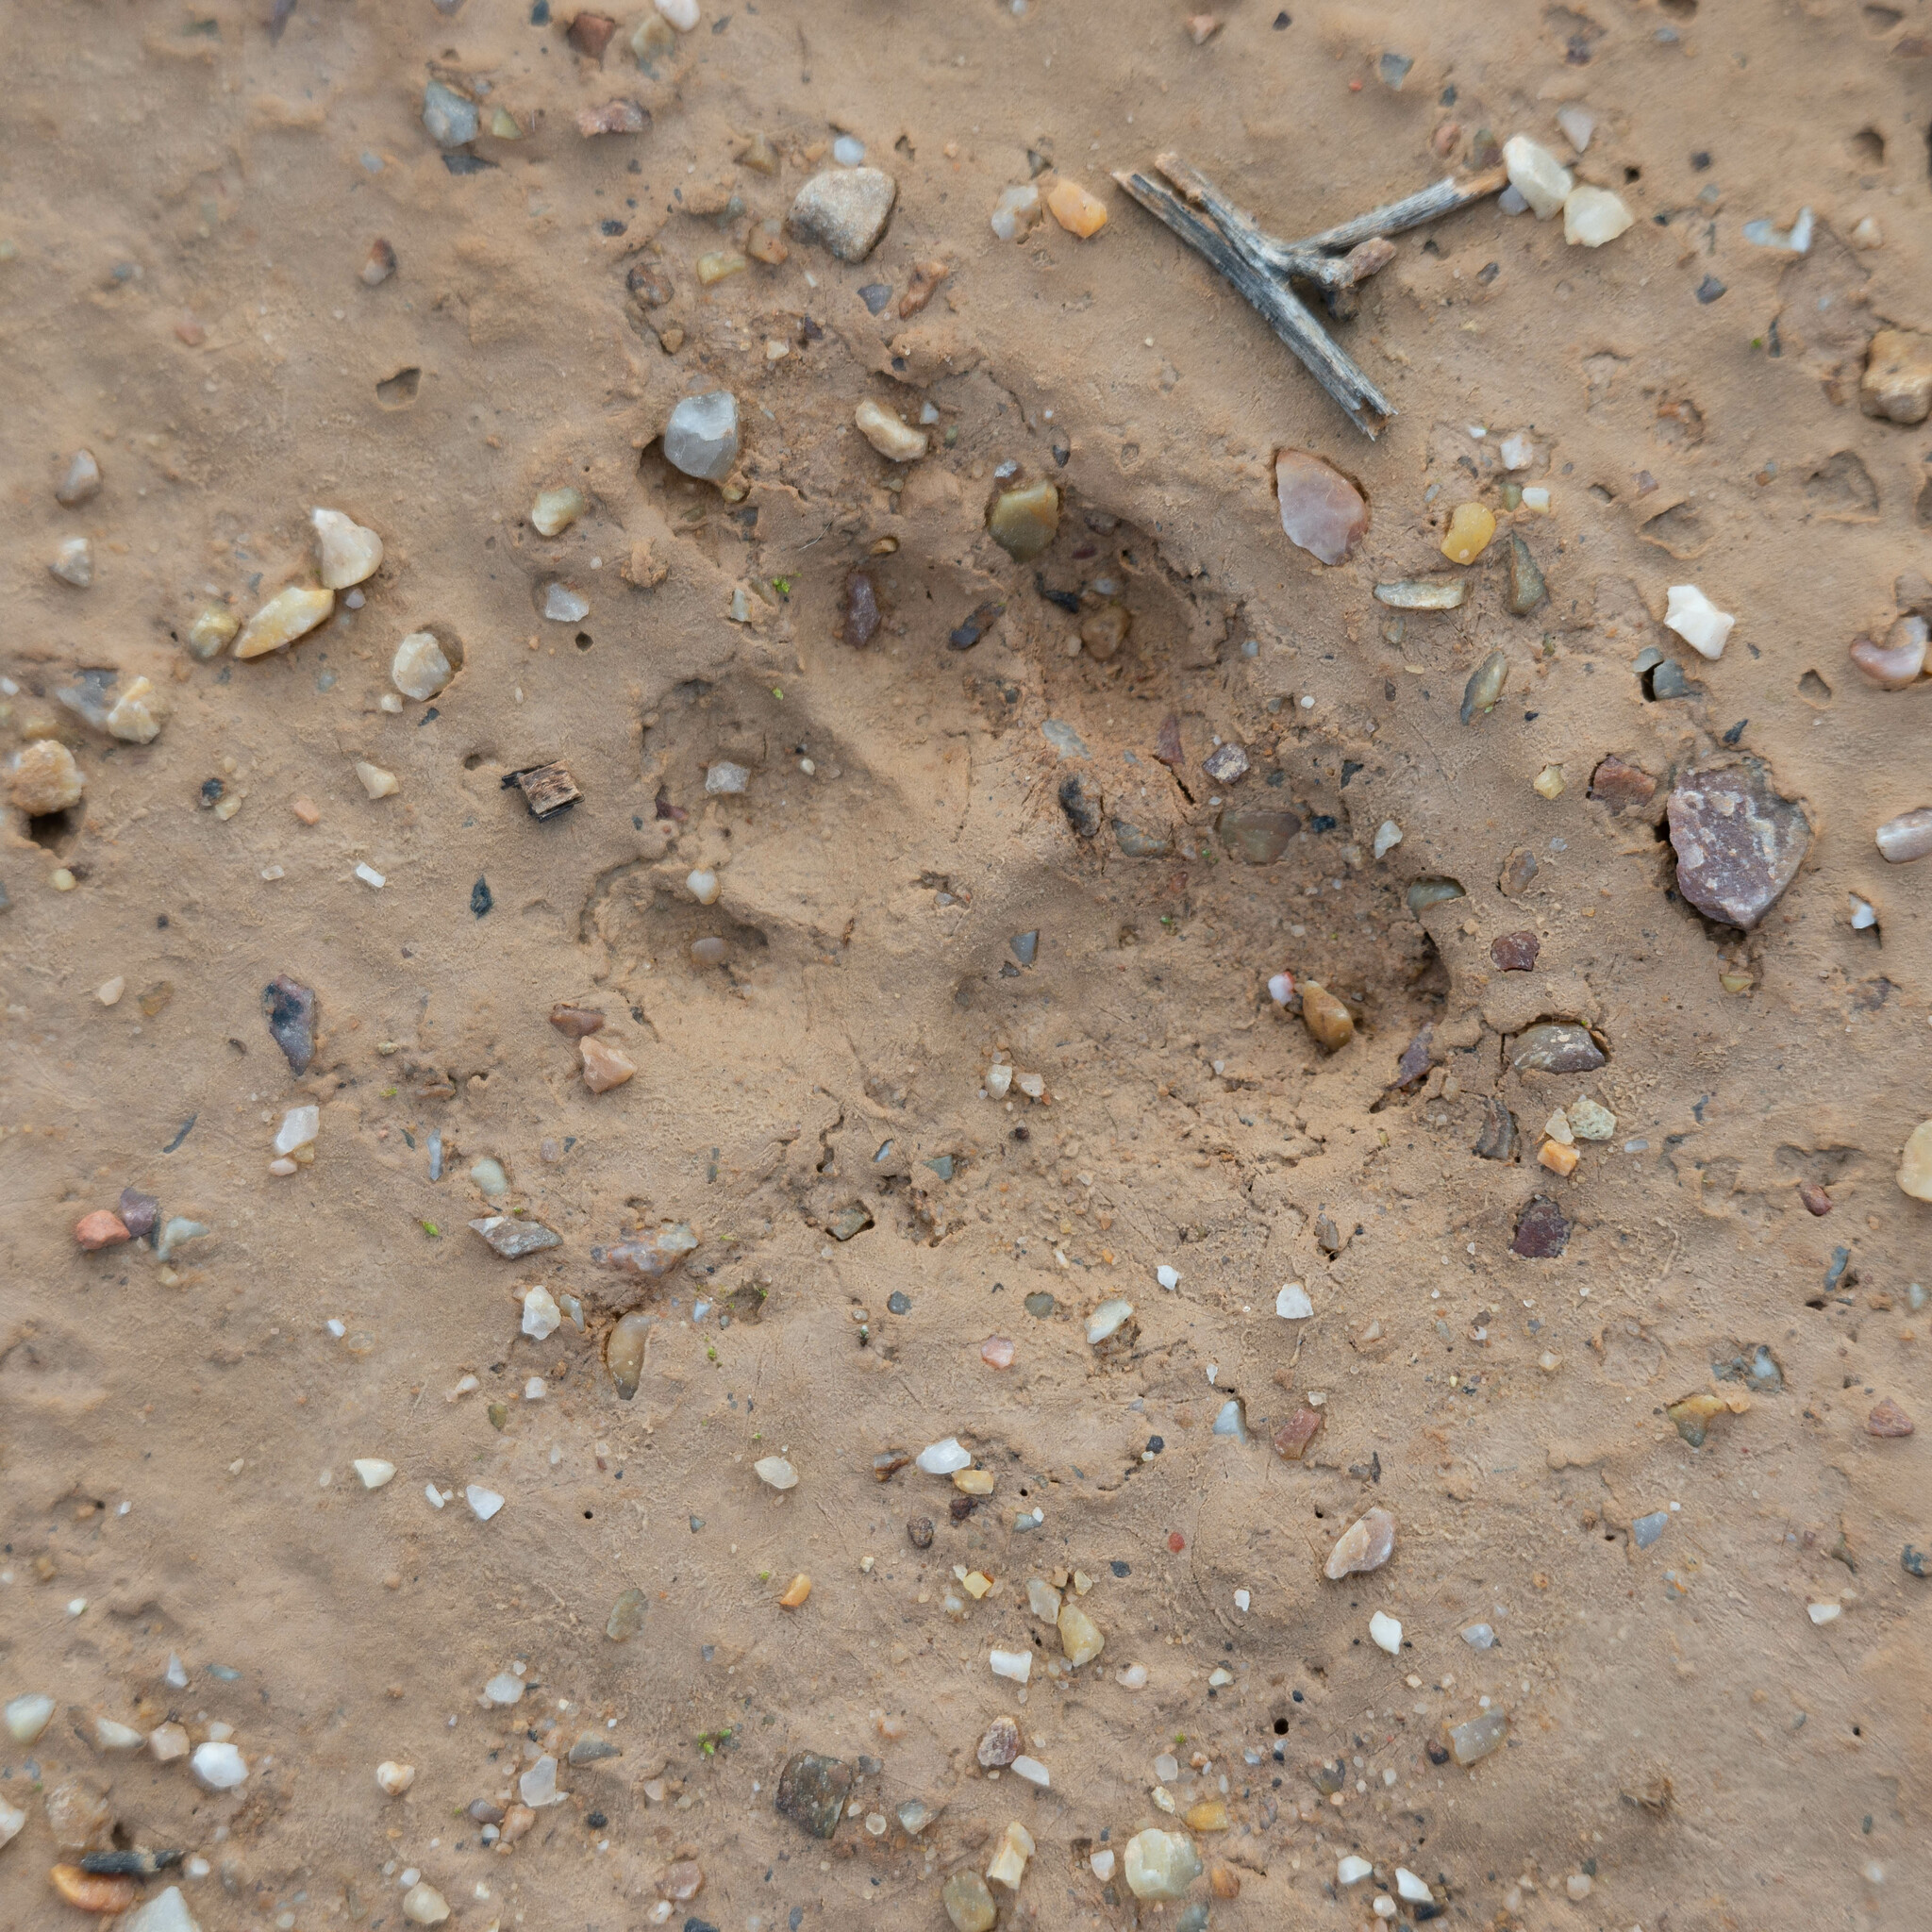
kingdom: Animalia
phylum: Chordata
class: Mammalia
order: Carnivora
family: Mustelidae
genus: Meles
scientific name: Meles meles
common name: Eurasian badger
